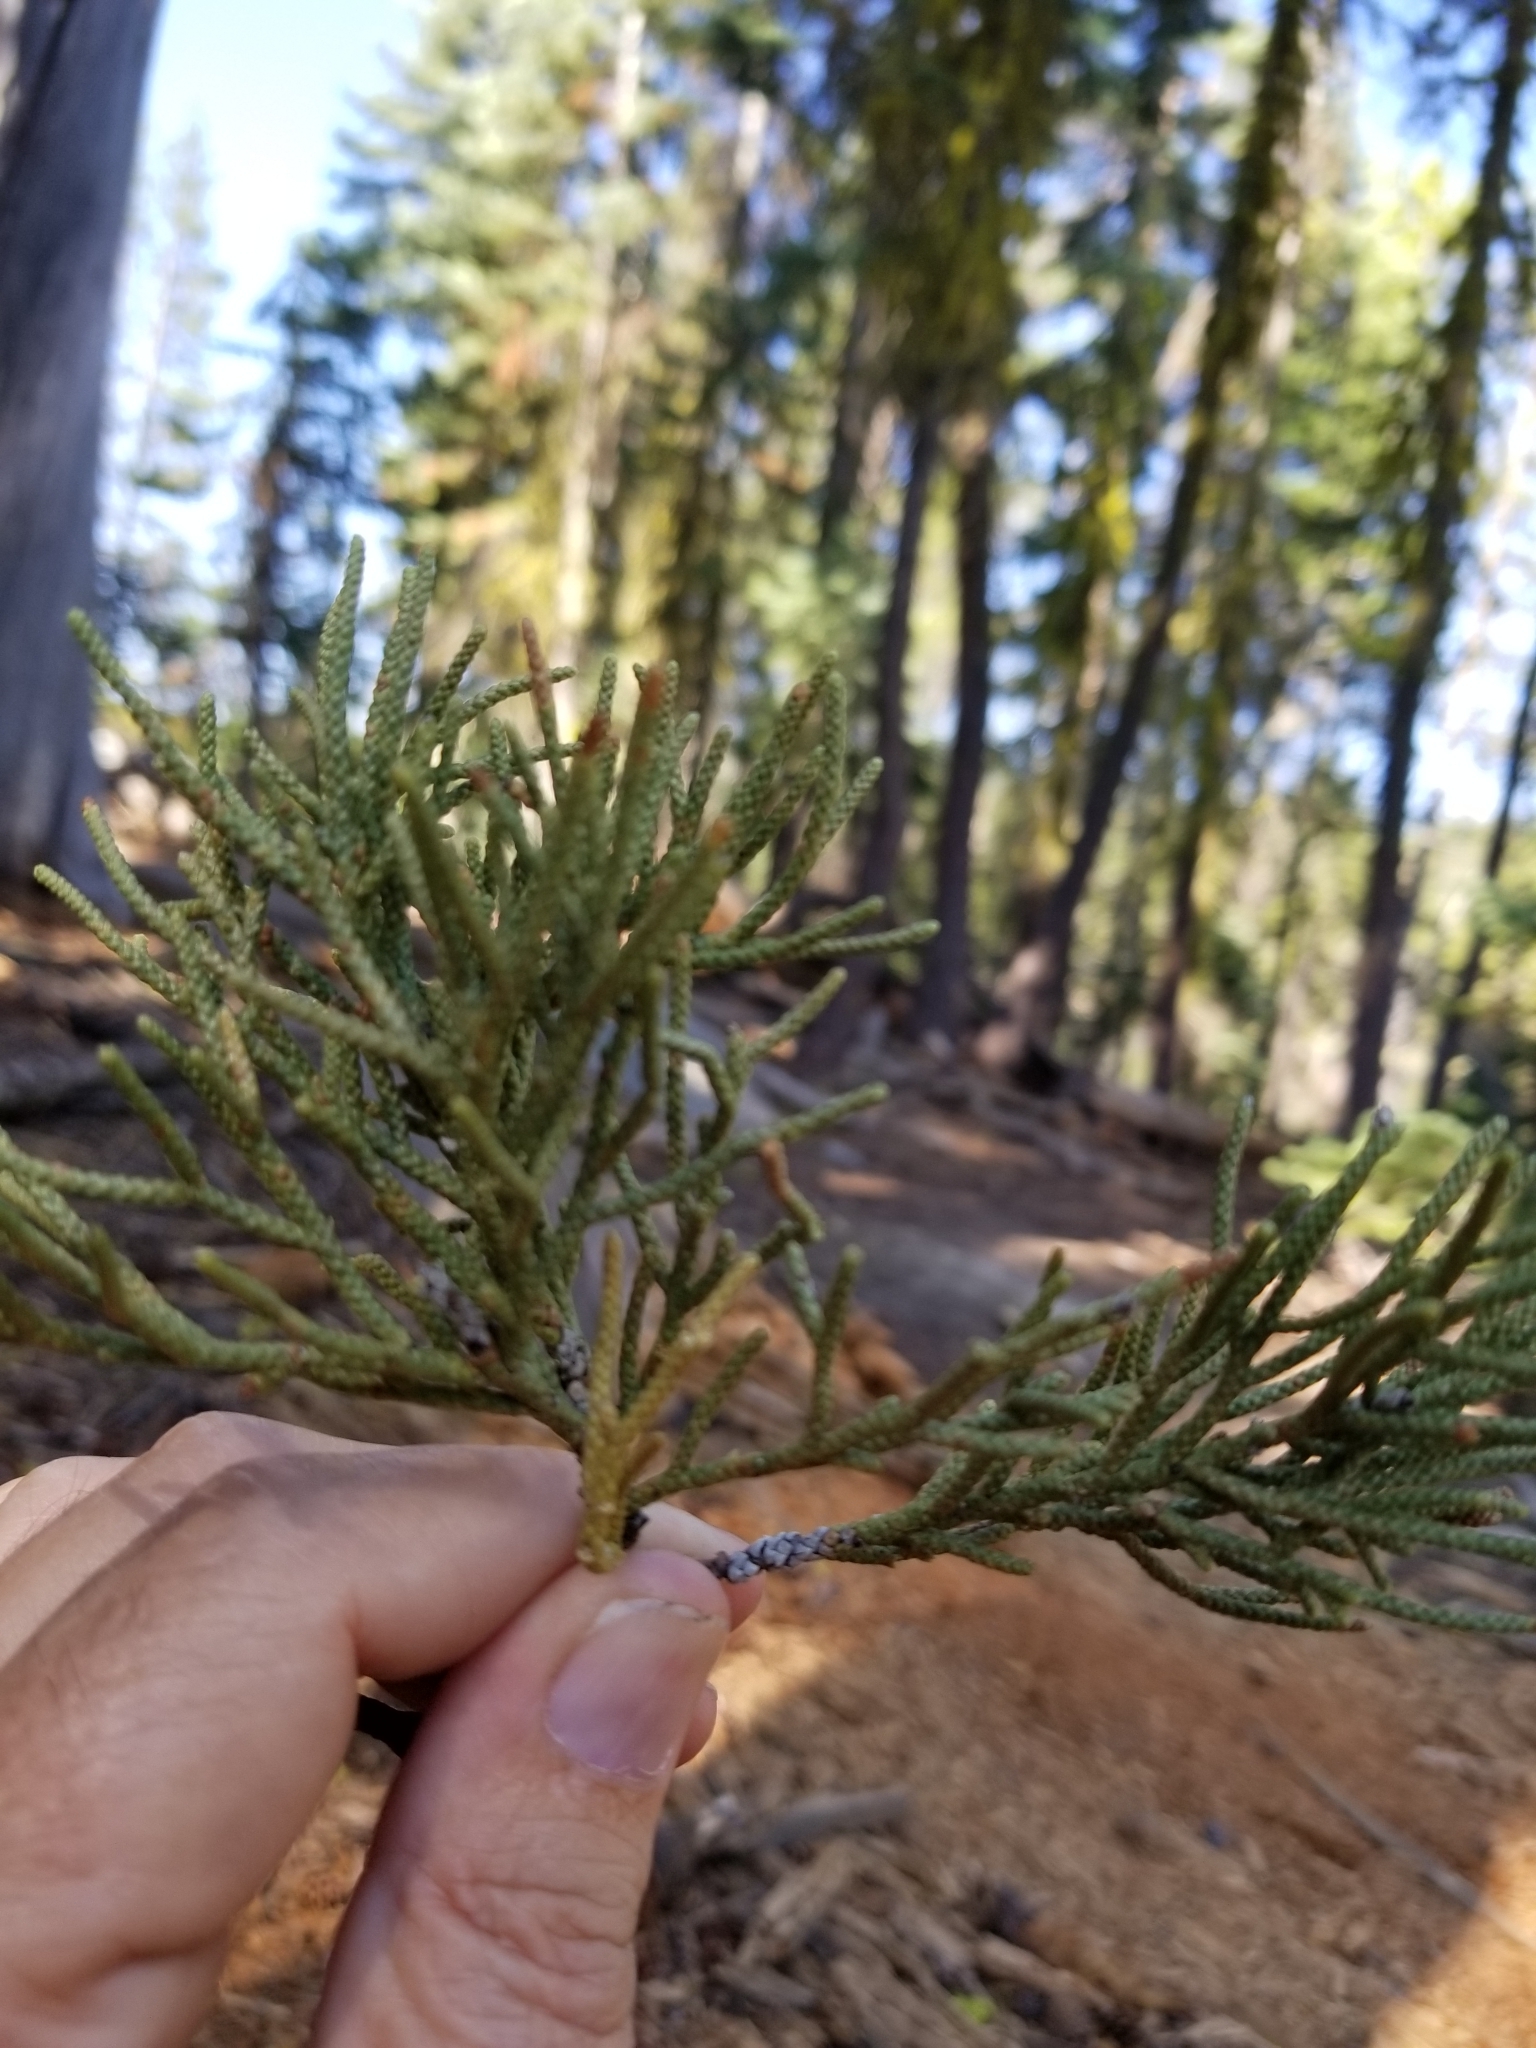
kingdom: Plantae
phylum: Tracheophyta
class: Pinopsida
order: Pinales
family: Cupressaceae
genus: Juniperus
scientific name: Juniperus occidentalis
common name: Western juniper
